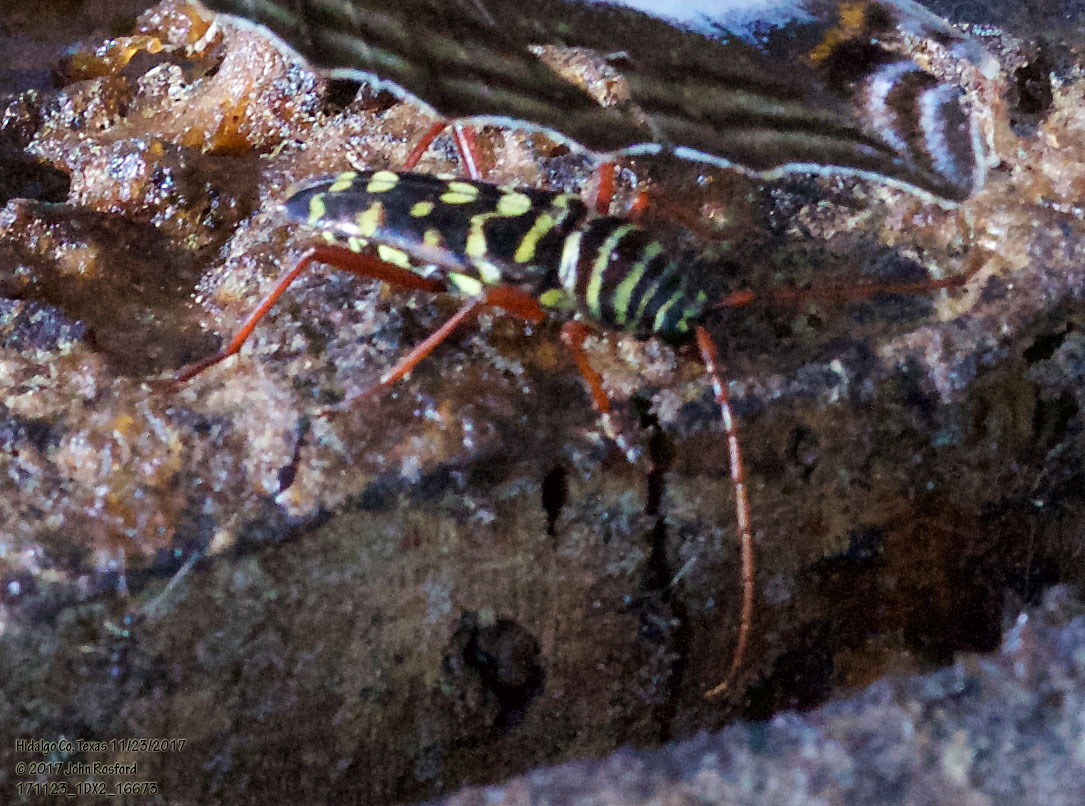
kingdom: Animalia
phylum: Arthropoda
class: Insecta
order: Coleoptera
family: Cerambycidae
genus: Placosternus
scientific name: Placosternus difficilis
